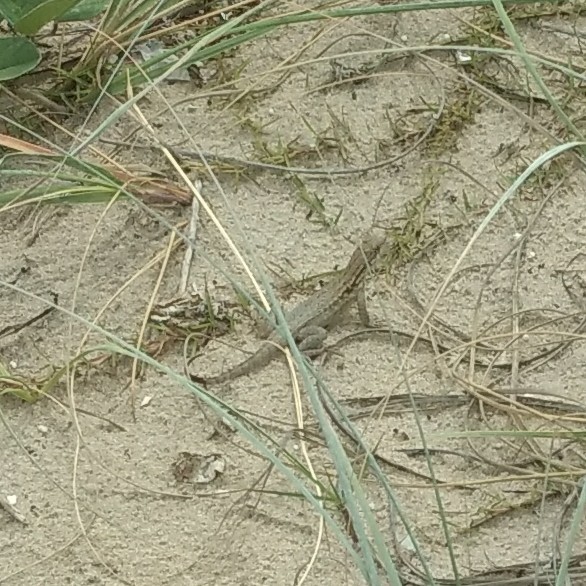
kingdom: Animalia
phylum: Chordata
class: Squamata
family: Leiocephalidae
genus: Leiocephalus
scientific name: Leiocephalus carinatus
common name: Northern curly-tailed lizard
